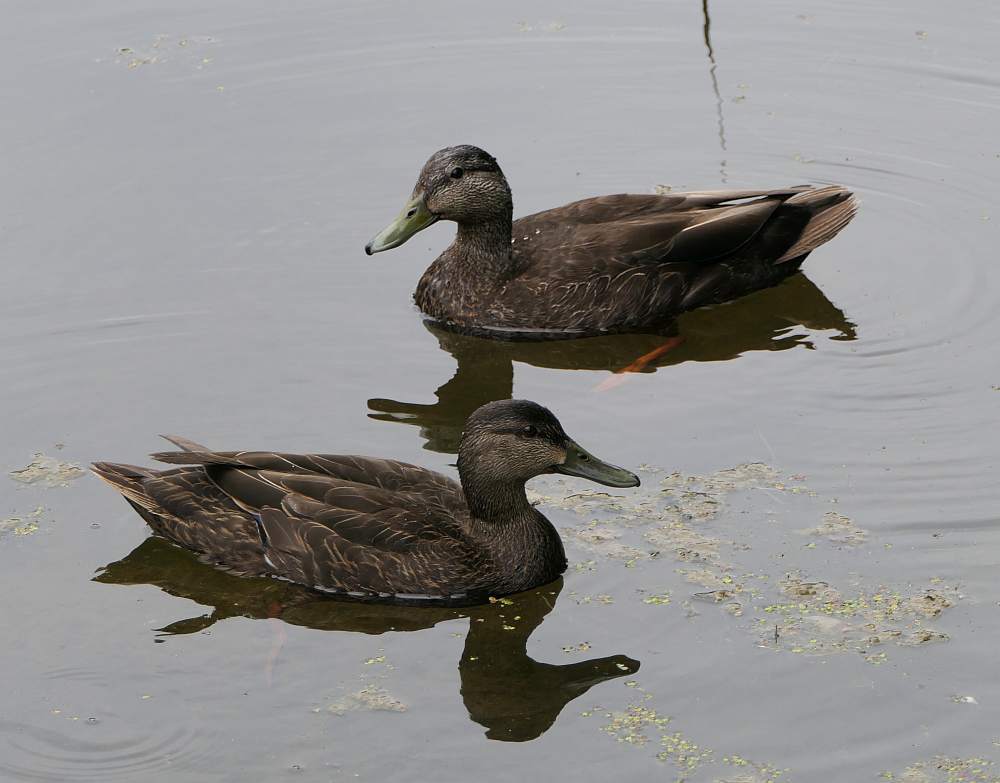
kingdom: Animalia
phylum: Chordata
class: Aves
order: Anseriformes
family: Anatidae
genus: Anas
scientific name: Anas rubripes
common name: American black duck
